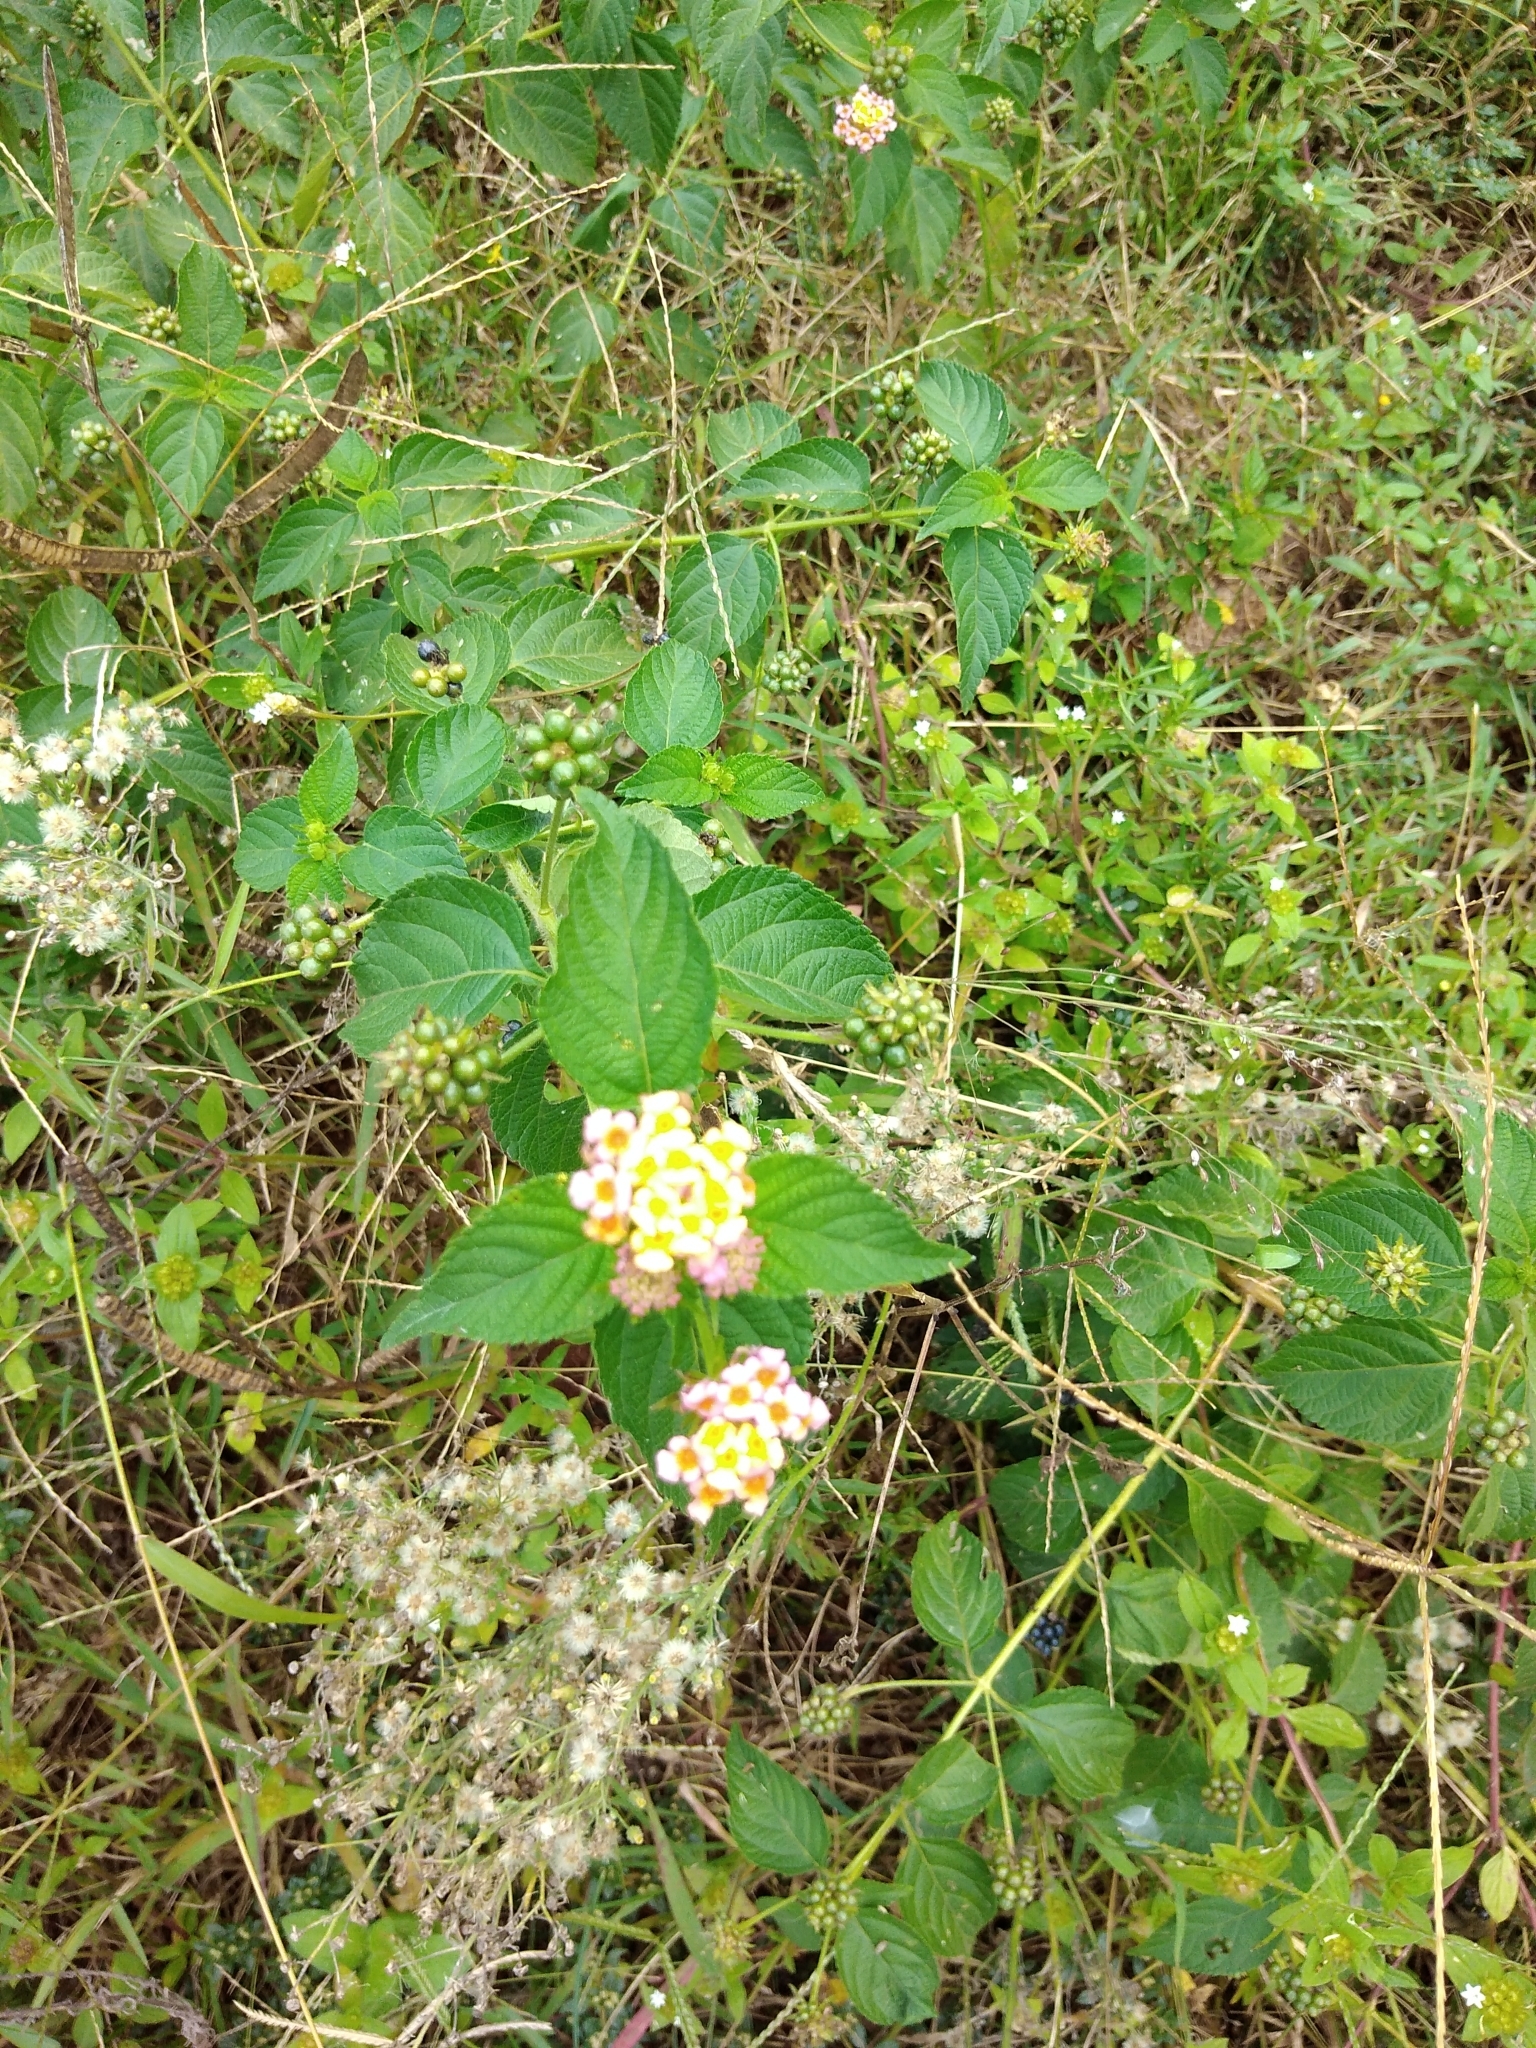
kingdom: Plantae
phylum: Tracheophyta
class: Magnoliopsida
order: Lamiales
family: Verbenaceae
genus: Lantana
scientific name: Lantana camara
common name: Lantana
